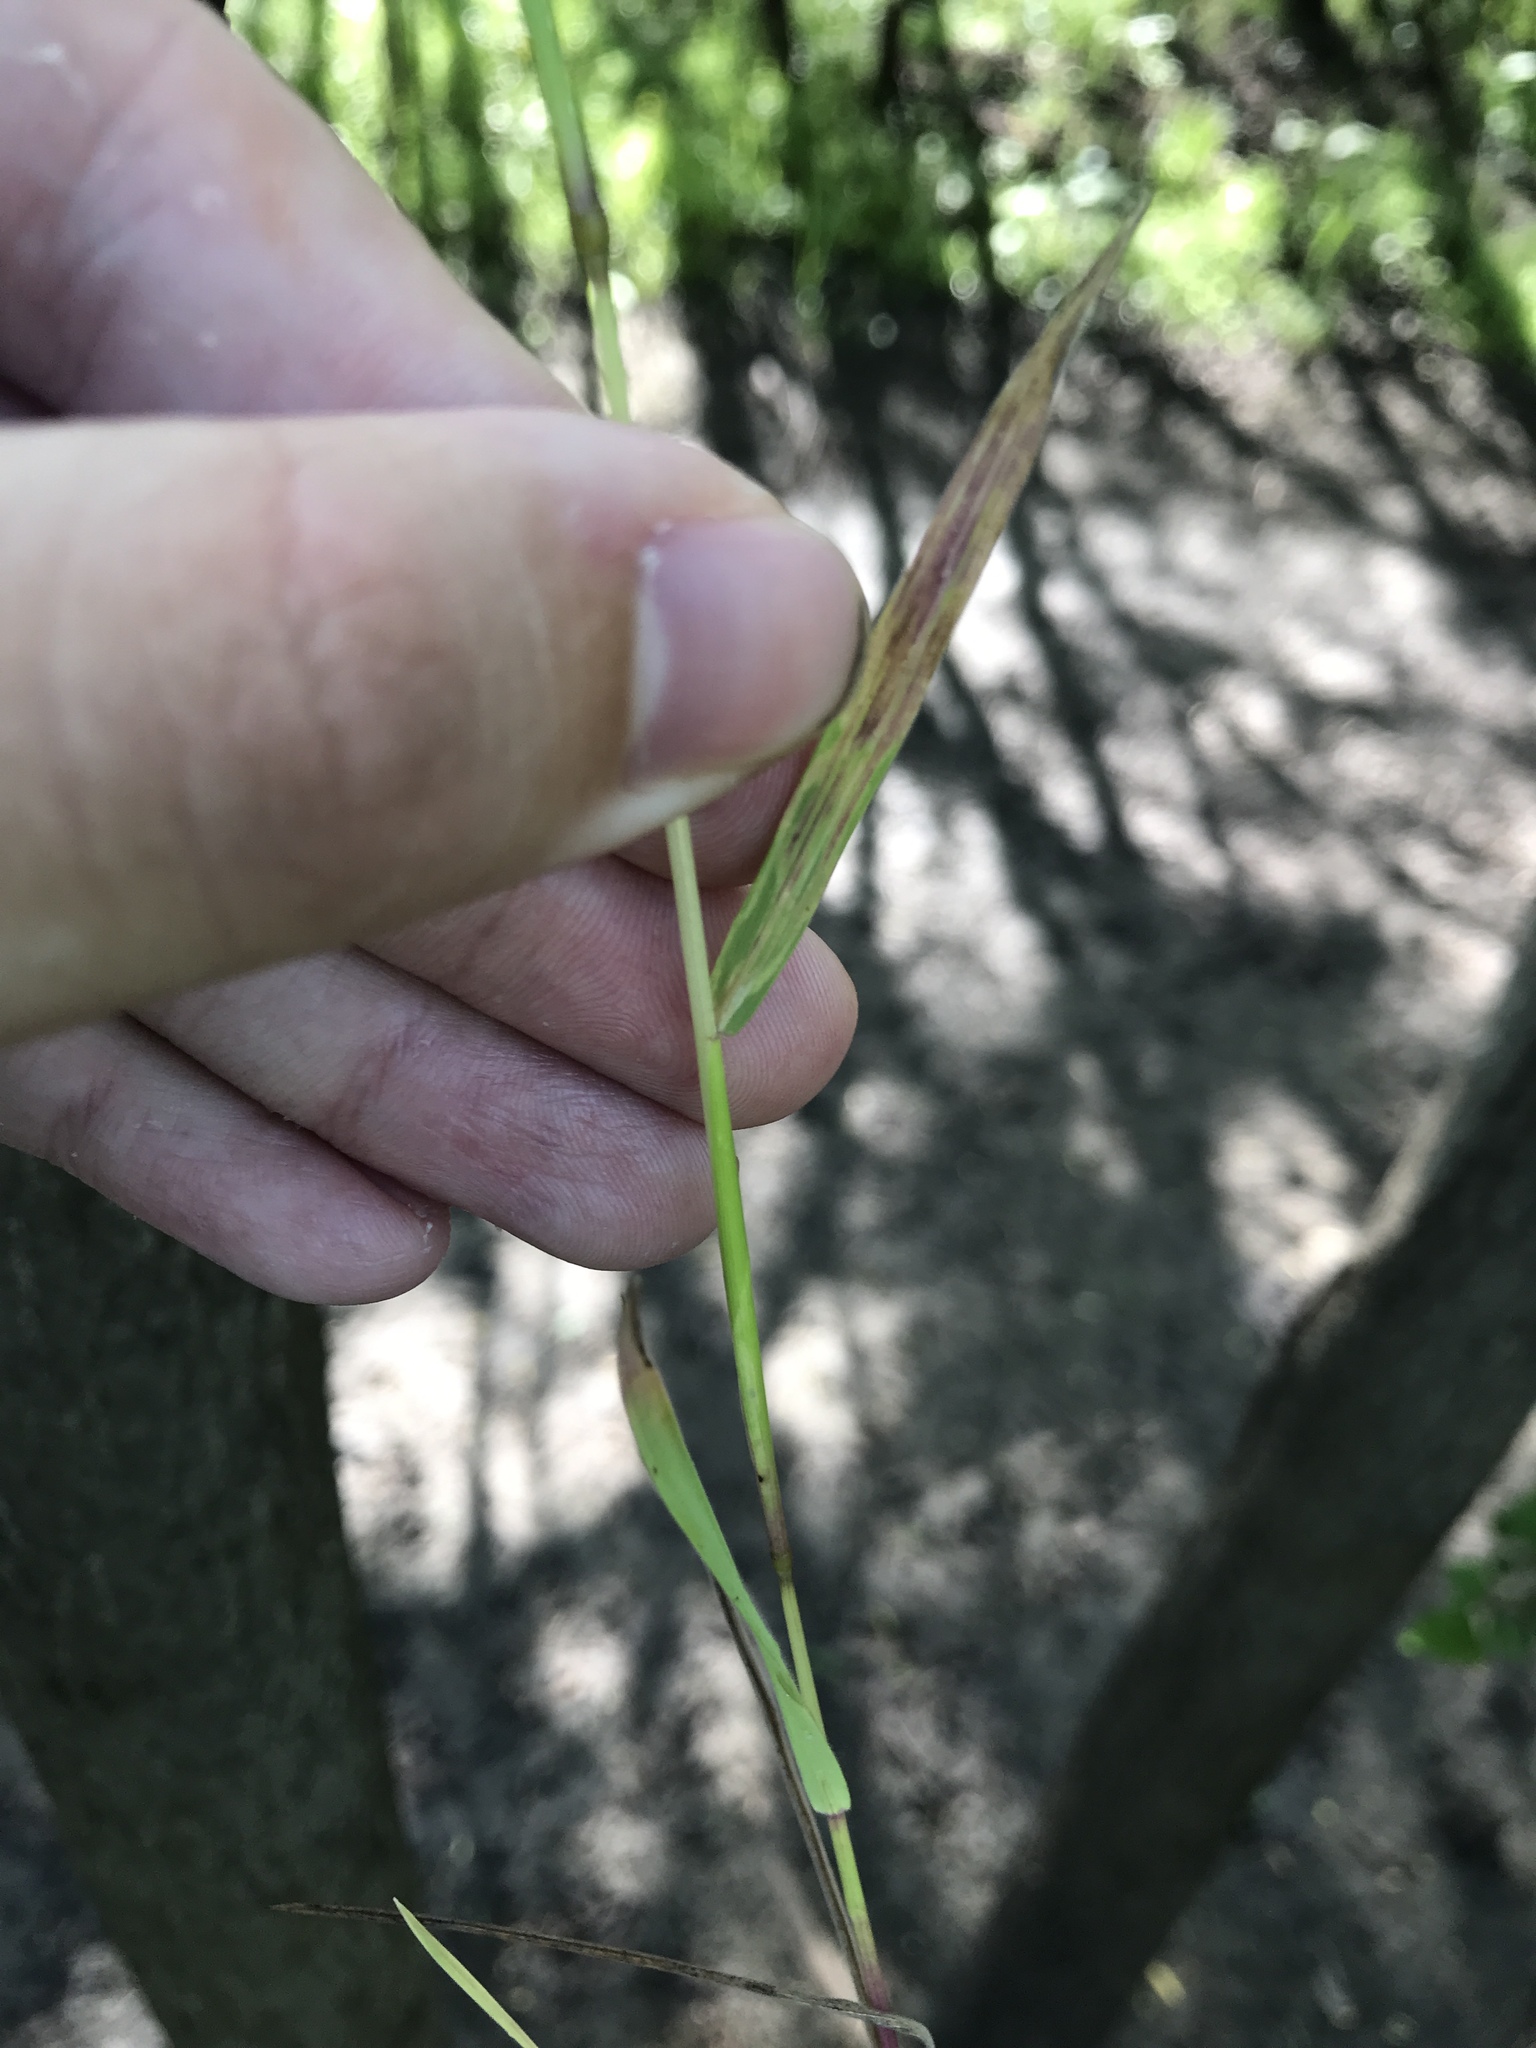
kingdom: Plantae
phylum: Tracheophyta
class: Liliopsida
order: Poales
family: Poaceae
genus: Hordeum
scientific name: Hordeum pusillum
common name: Little barley
